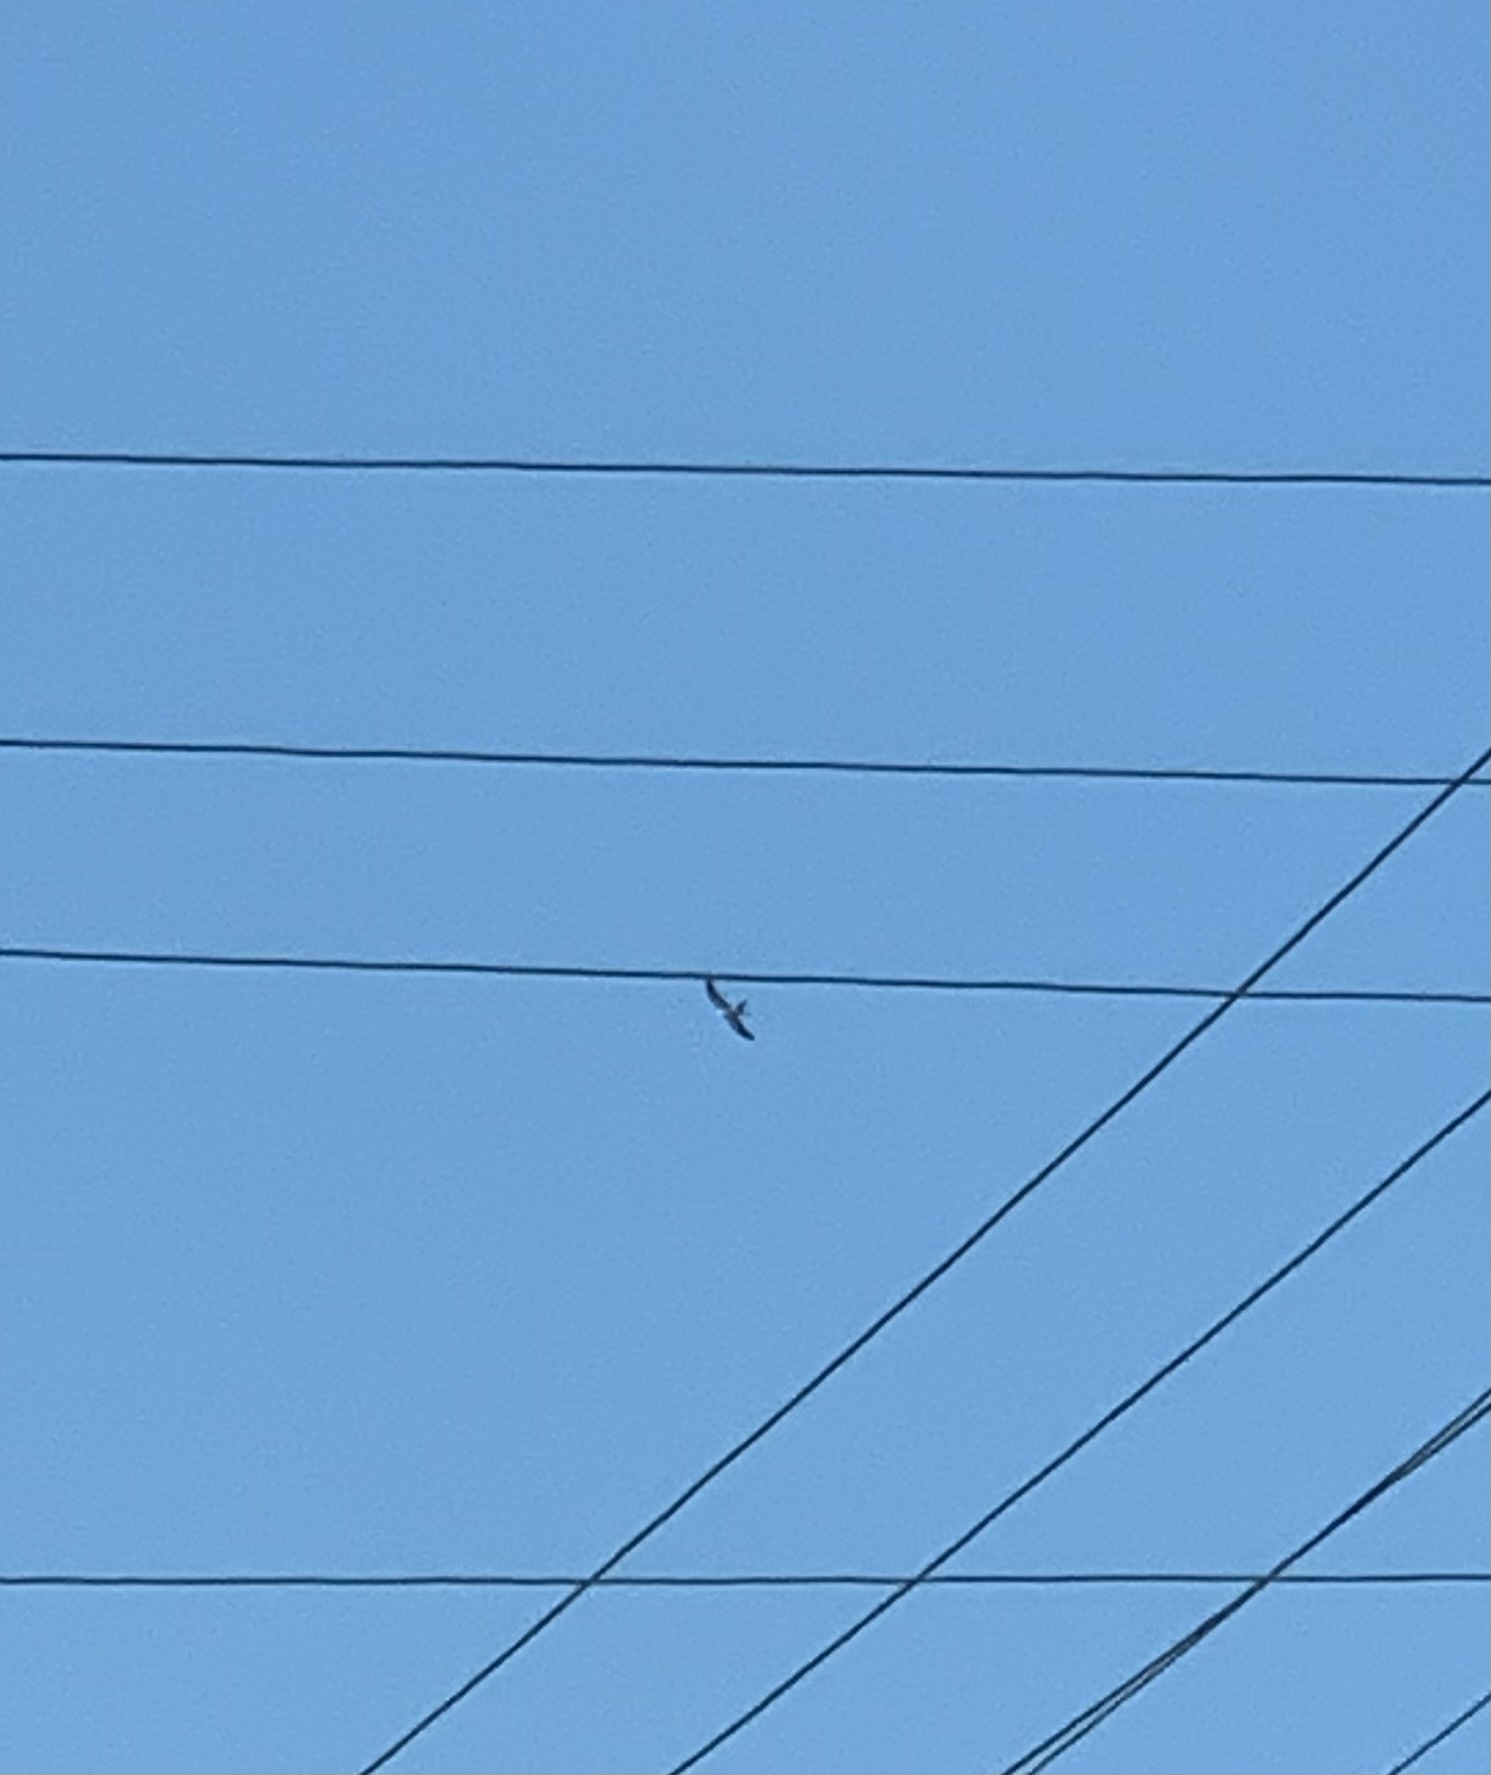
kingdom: Animalia
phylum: Chordata
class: Aves
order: Accipitriformes
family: Accipitridae
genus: Elanoides
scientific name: Elanoides forficatus
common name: Swallow-tailed kite
